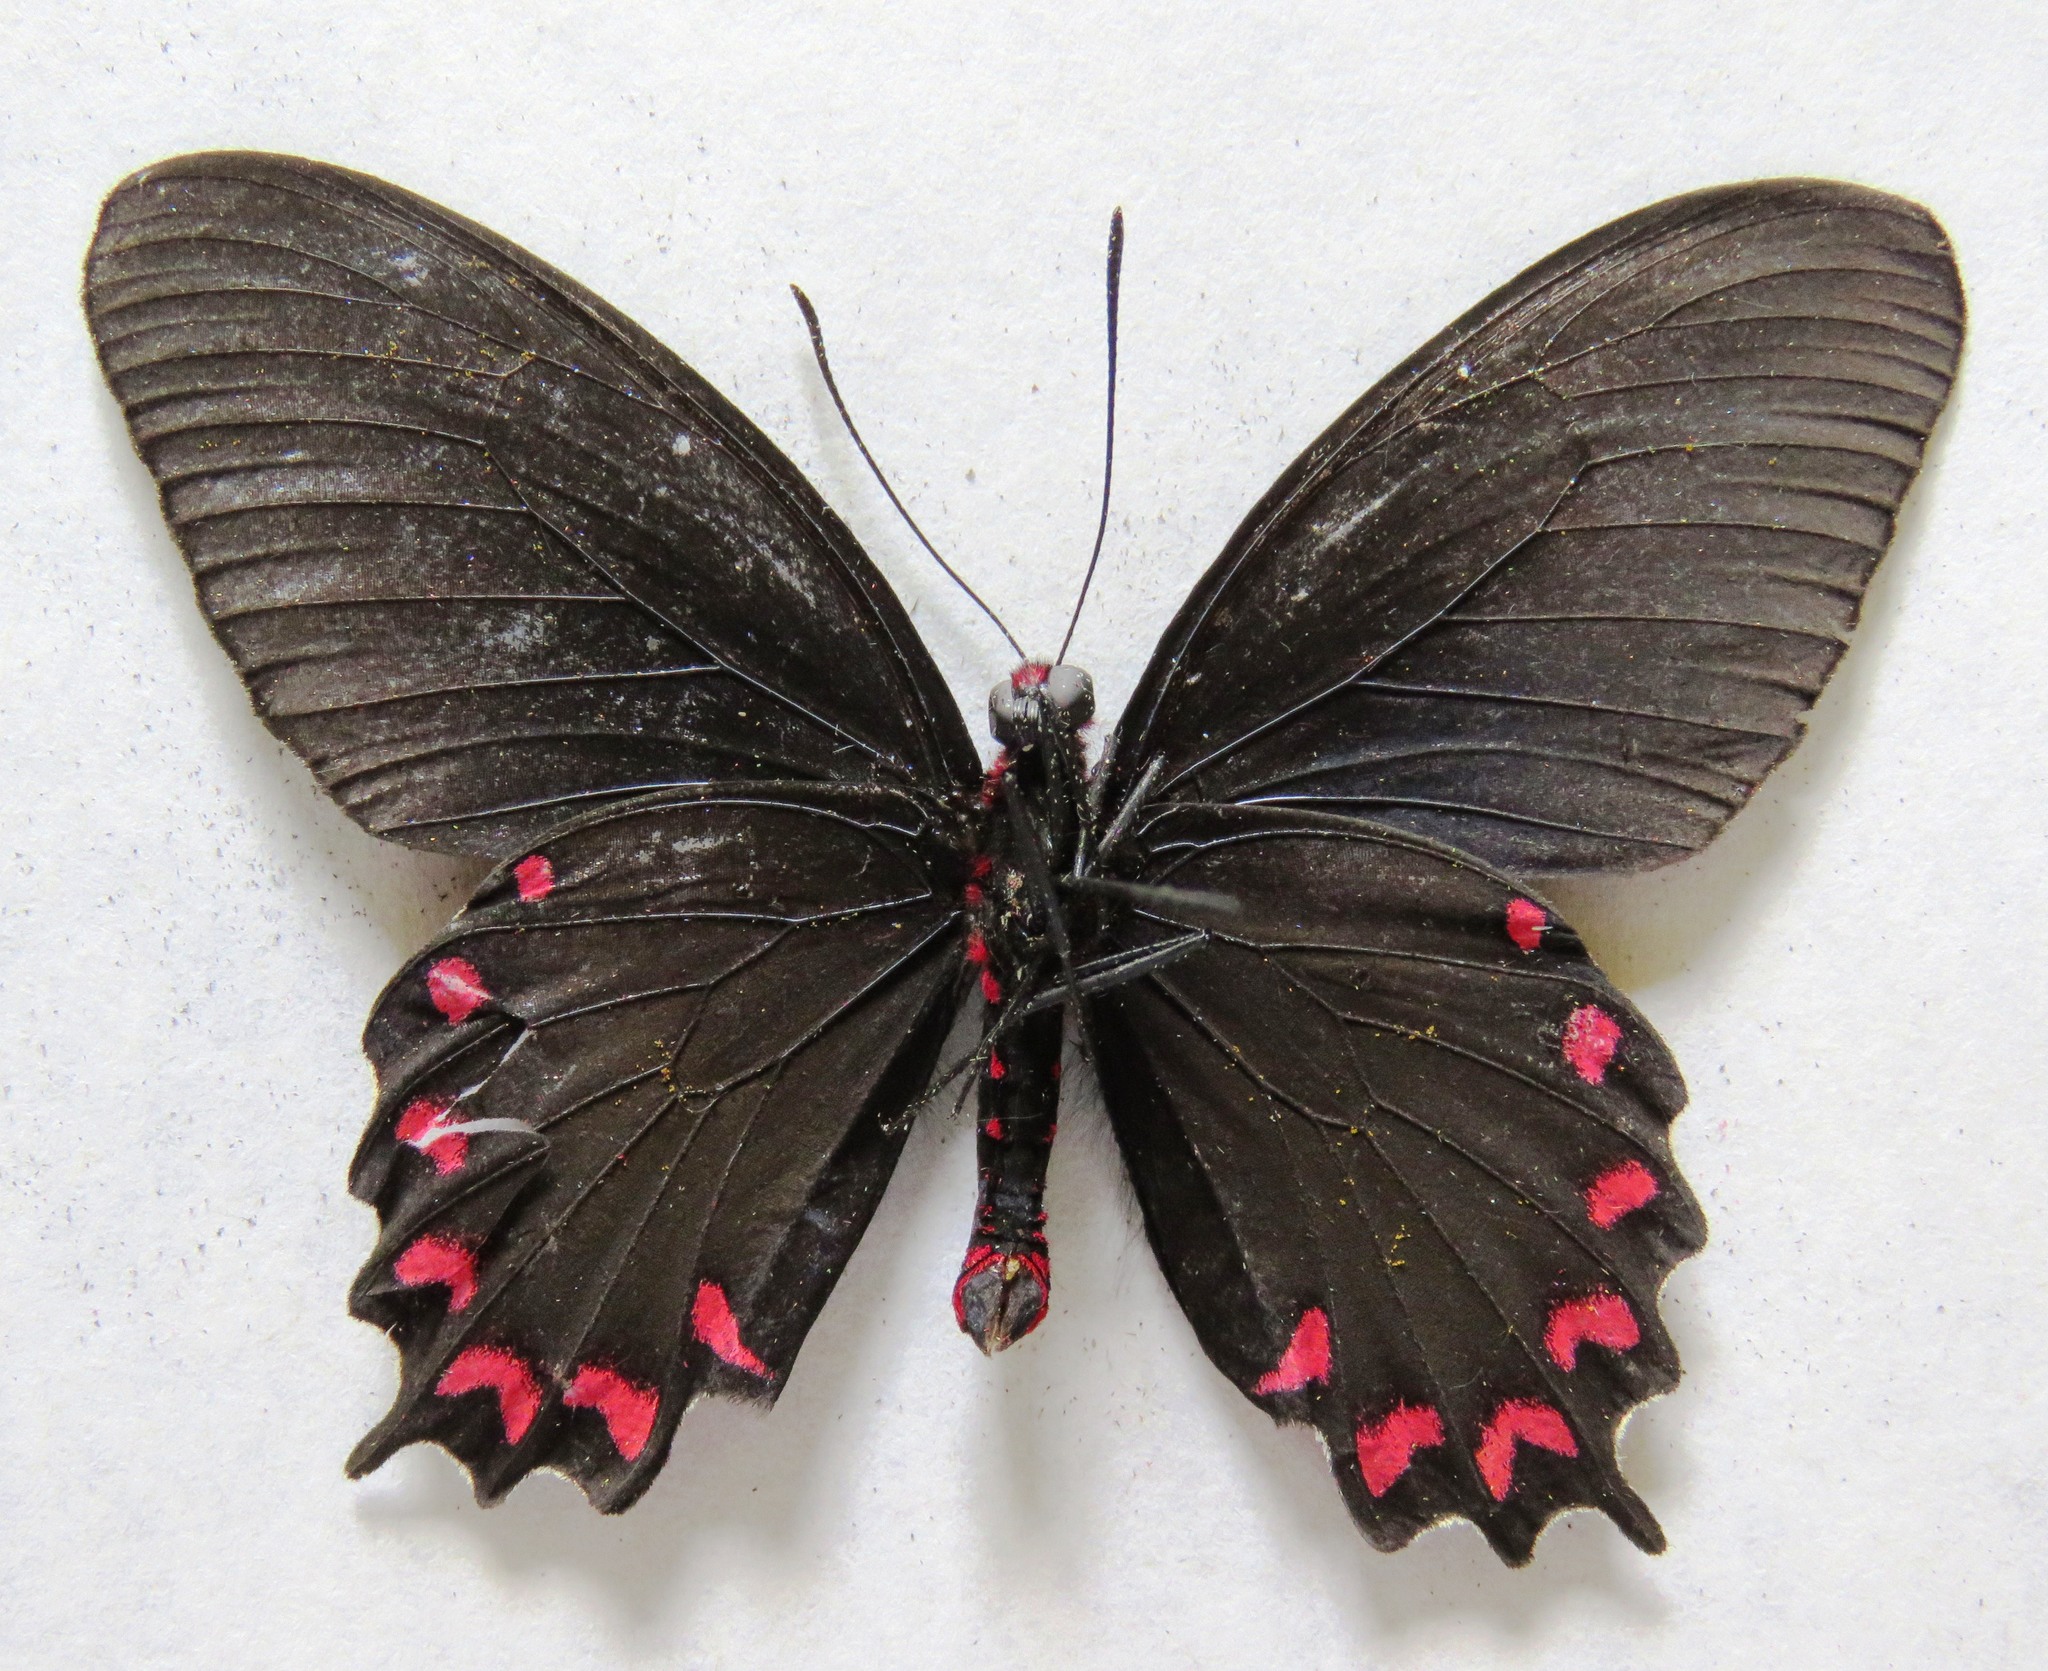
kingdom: Animalia
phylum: Arthropoda
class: Insecta
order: Lepidoptera
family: Papilionidae
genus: Parides
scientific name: Parides montezuma
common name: Montezuma's cattleheart
